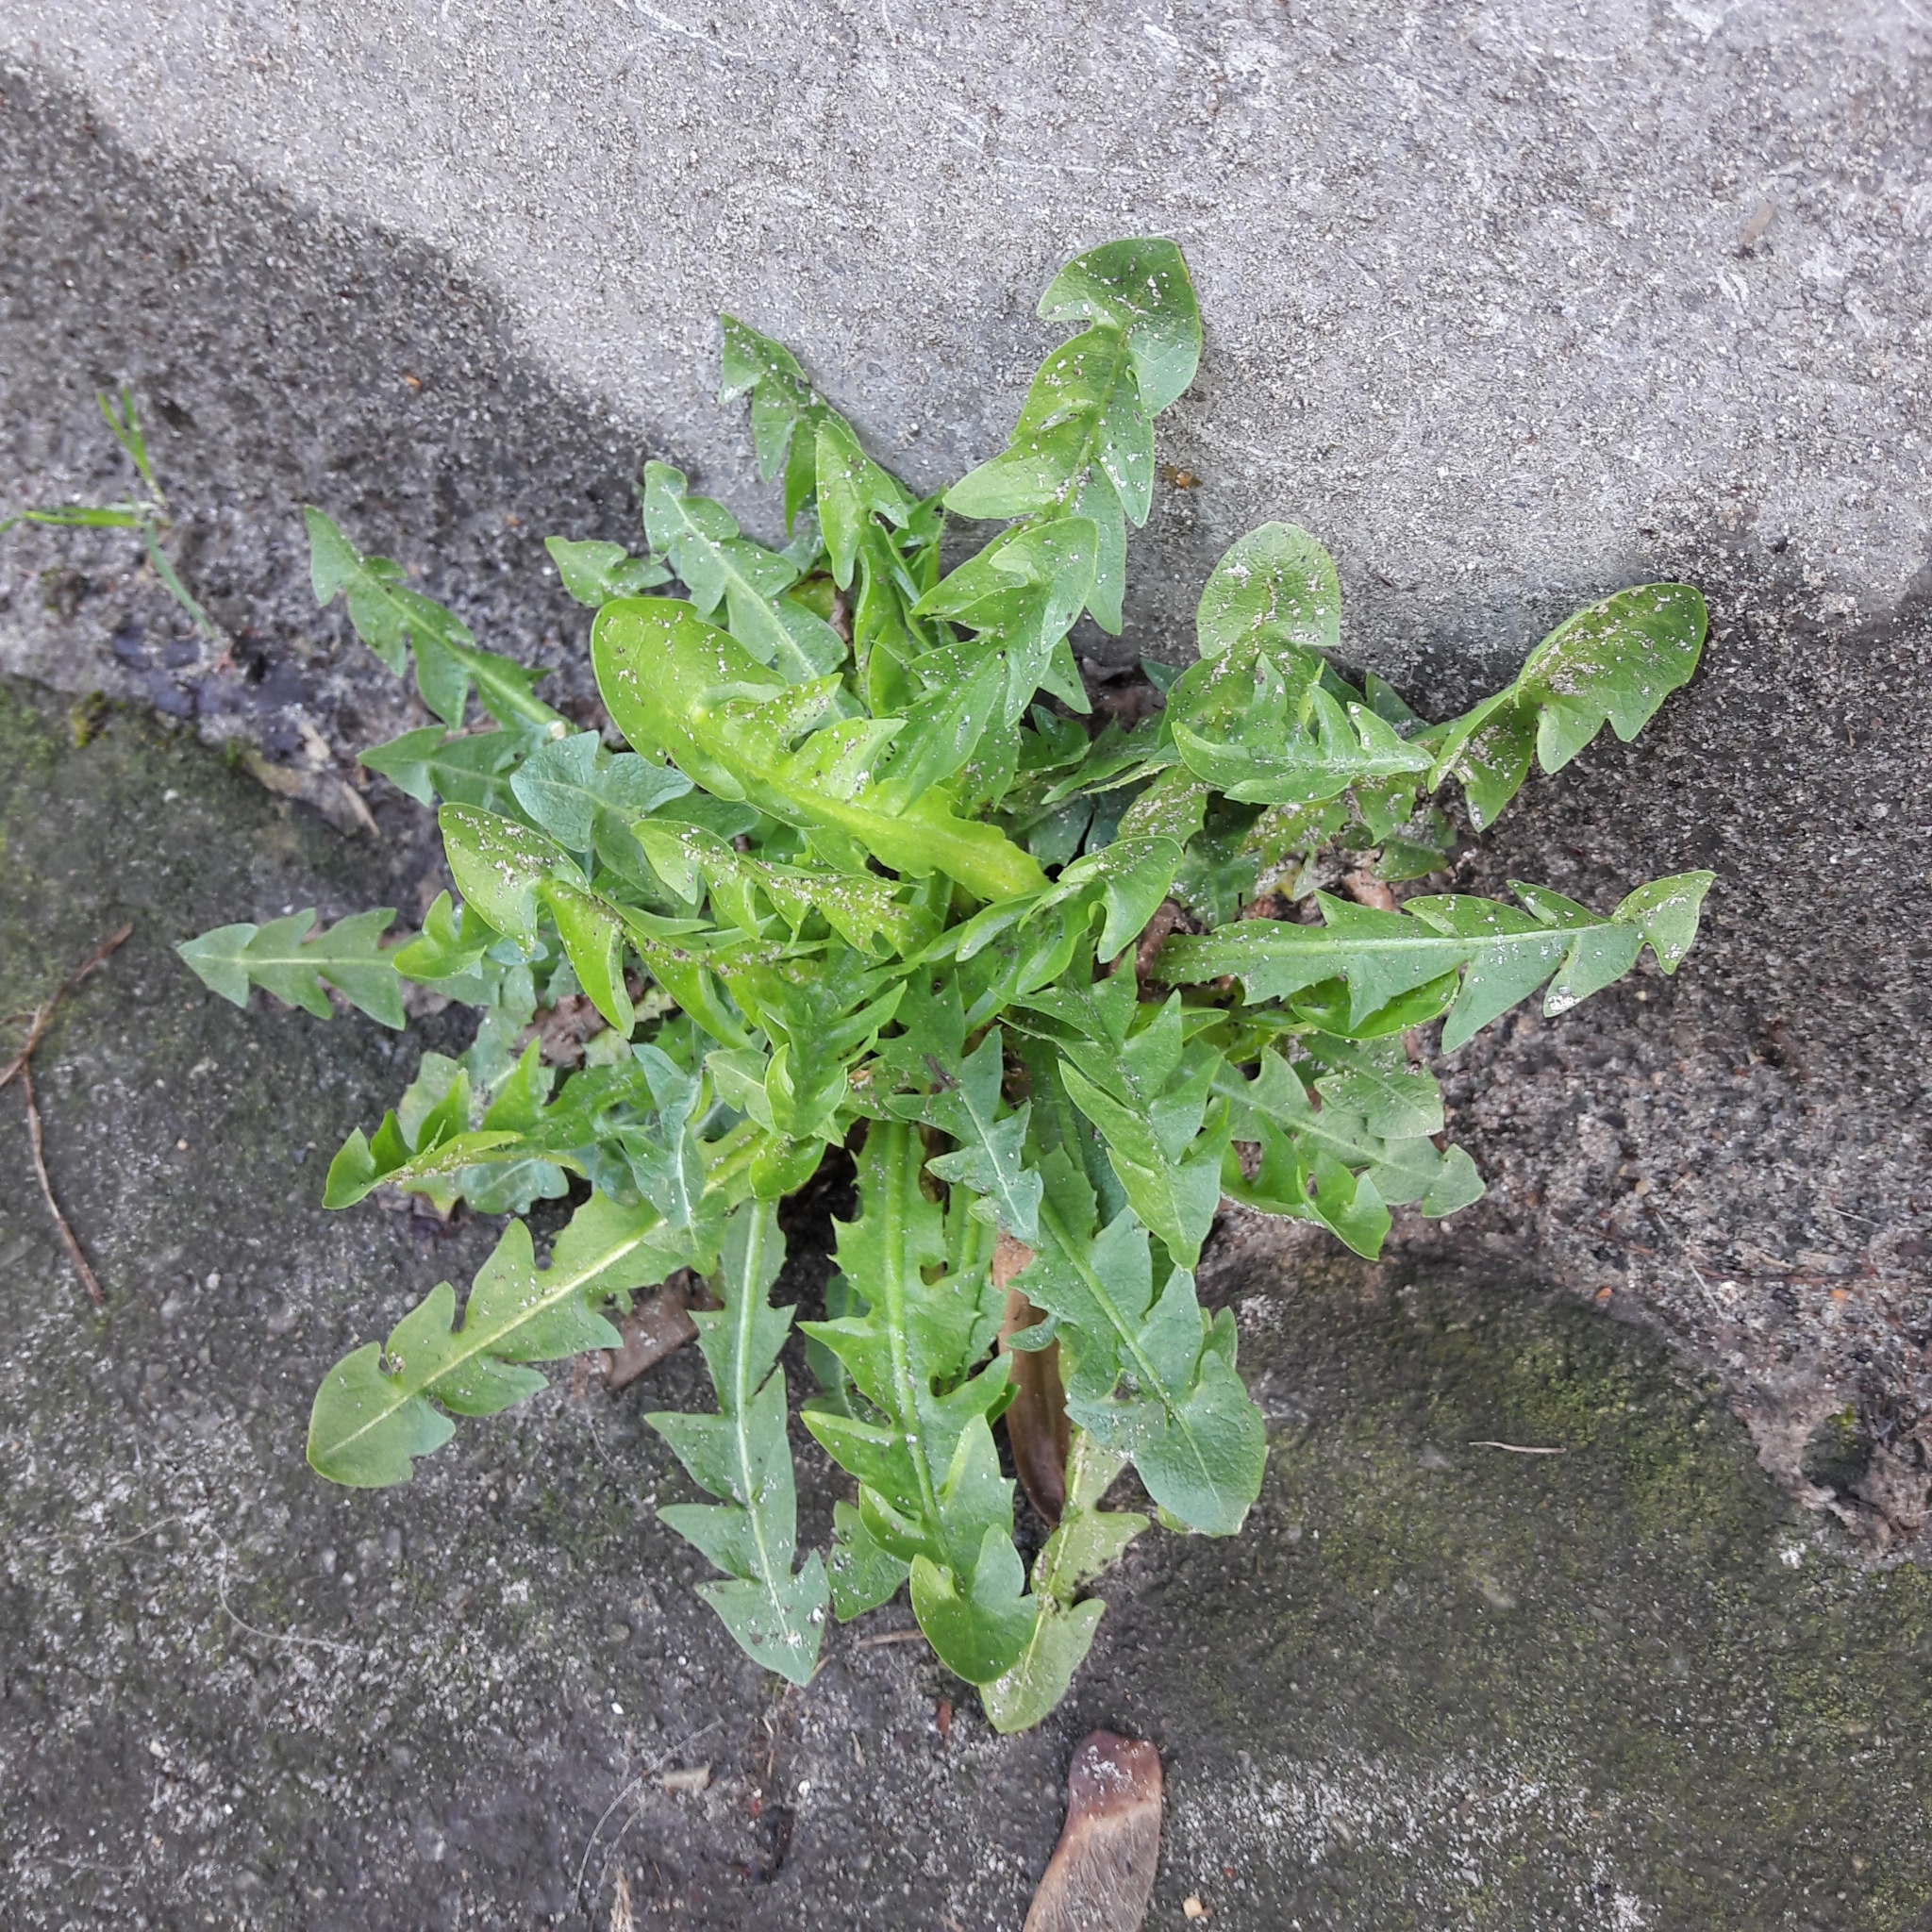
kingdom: Plantae
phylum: Tracheophyta
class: Magnoliopsida
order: Asterales
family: Asteraceae
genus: Taraxacum
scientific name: Taraxacum officinale
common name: Common dandelion
